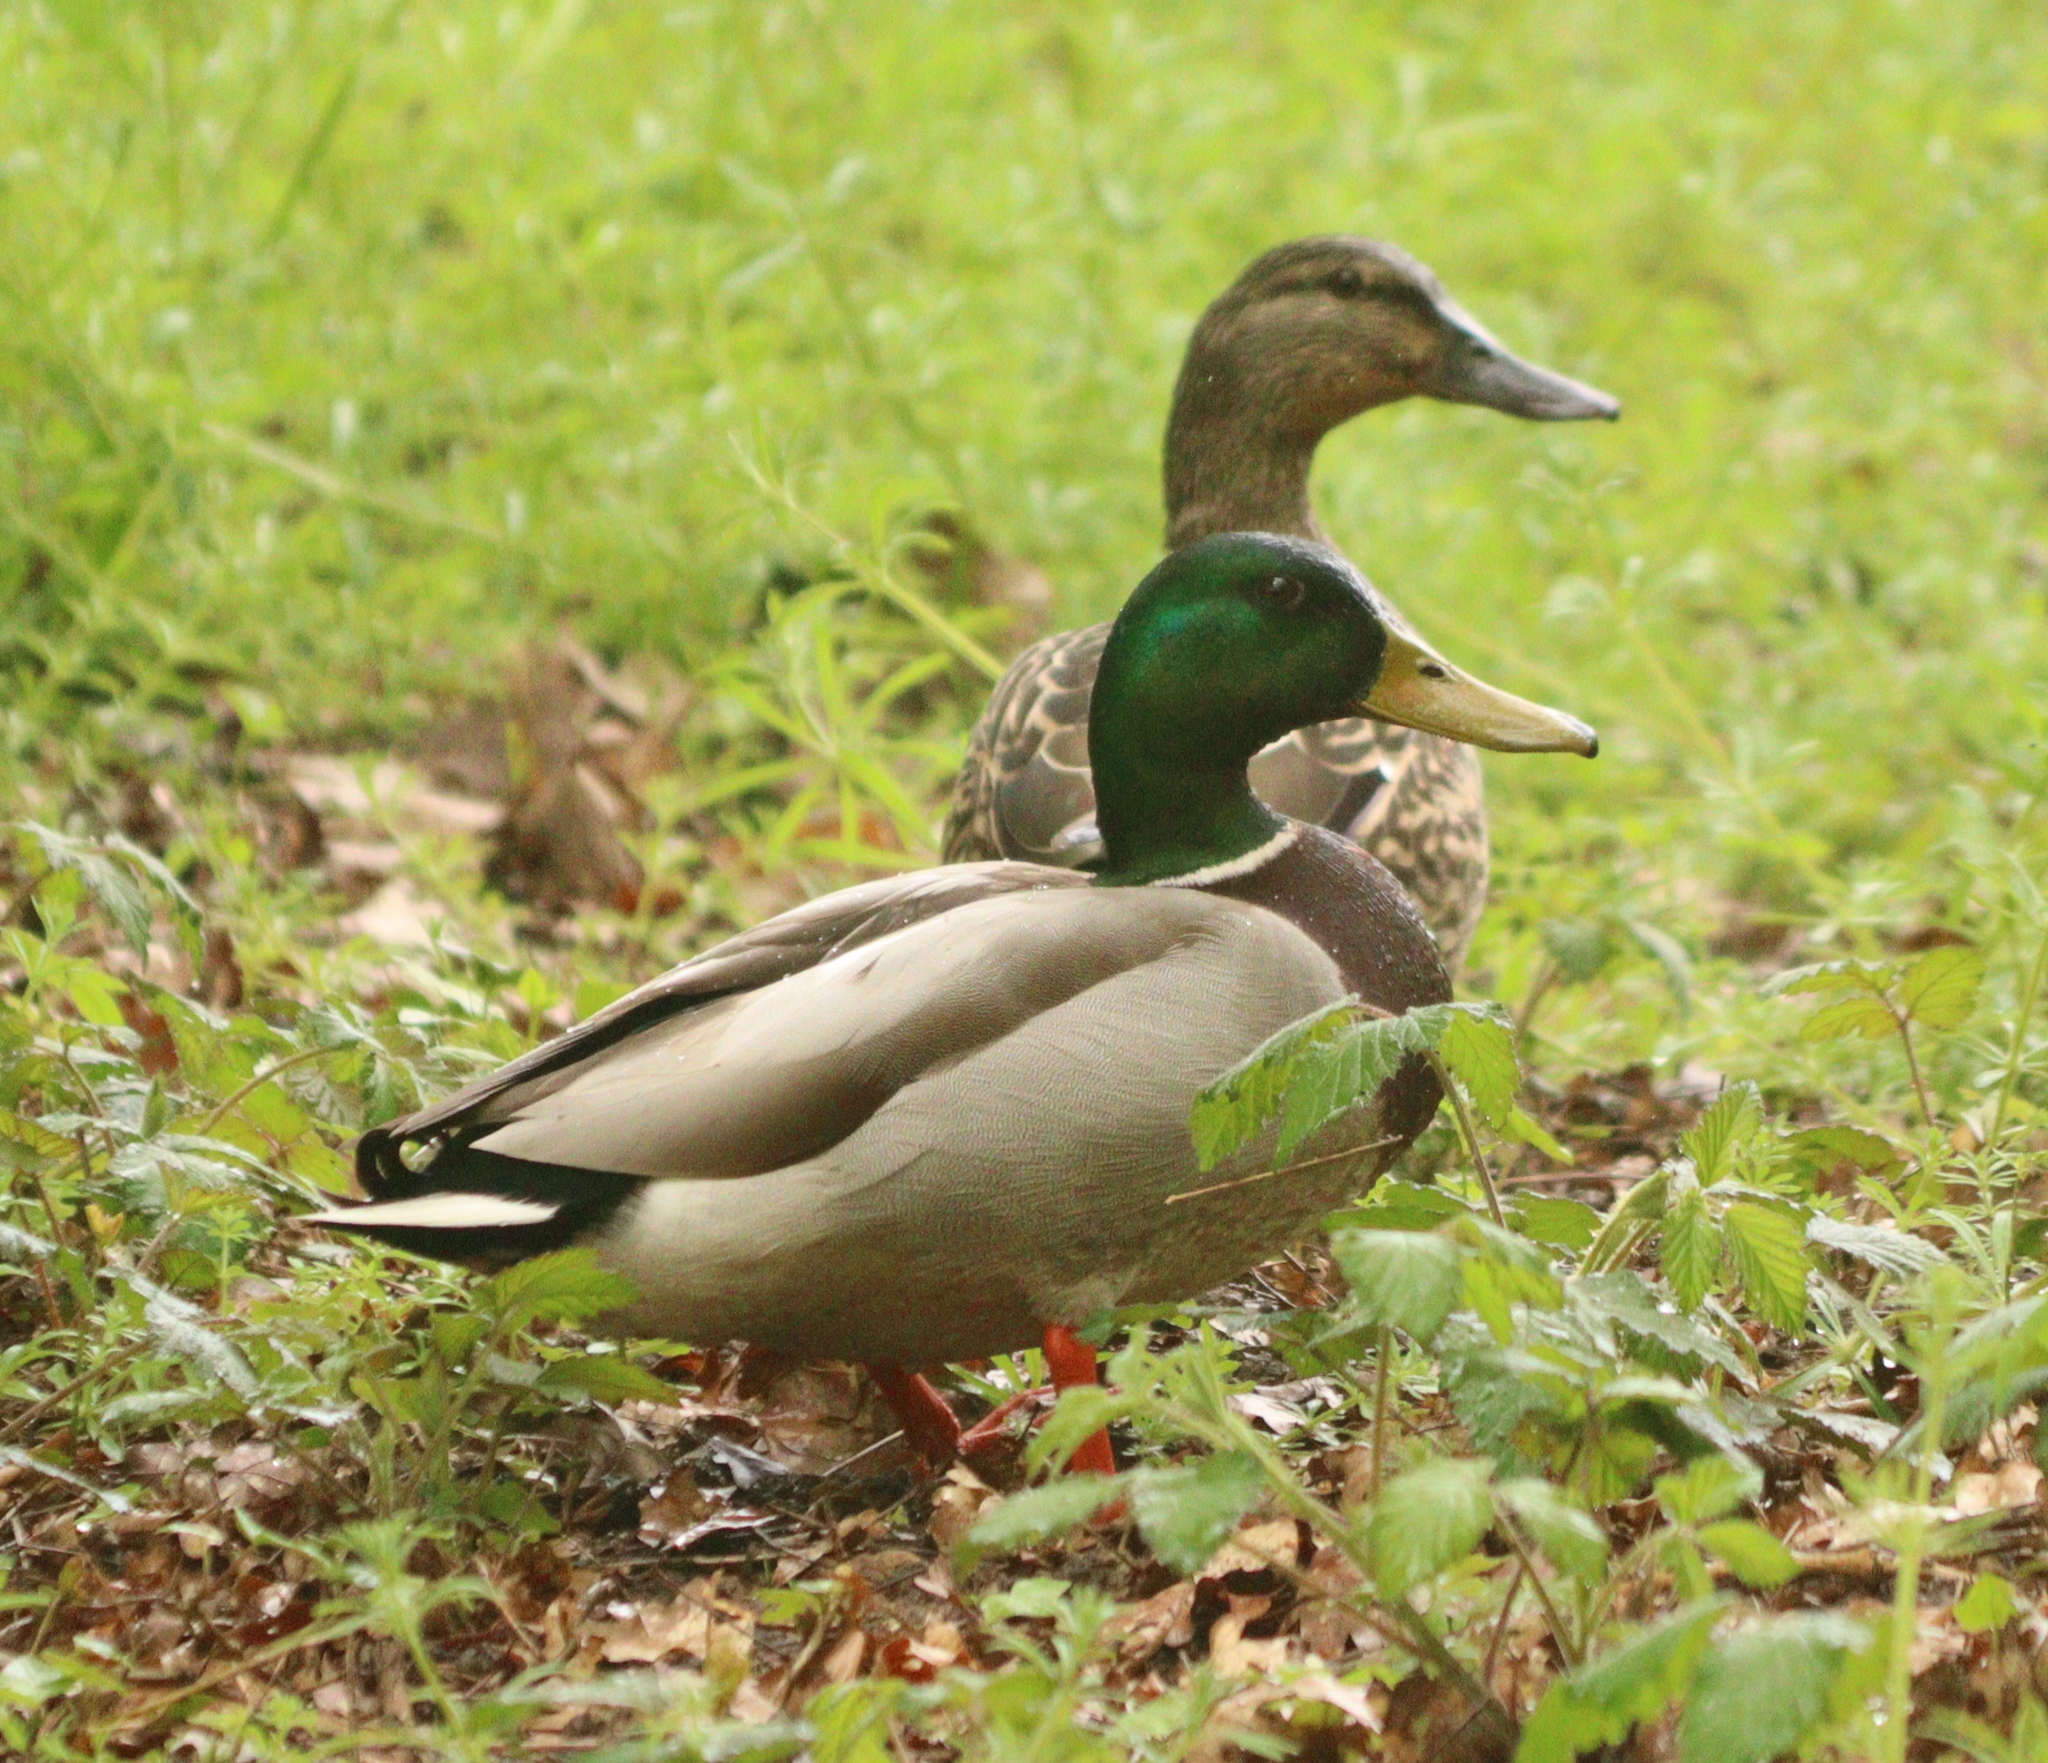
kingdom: Animalia
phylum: Chordata
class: Aves
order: Anseriformes
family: Anatidae
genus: Anas
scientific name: Anas platyrhynchos
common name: Mallard
